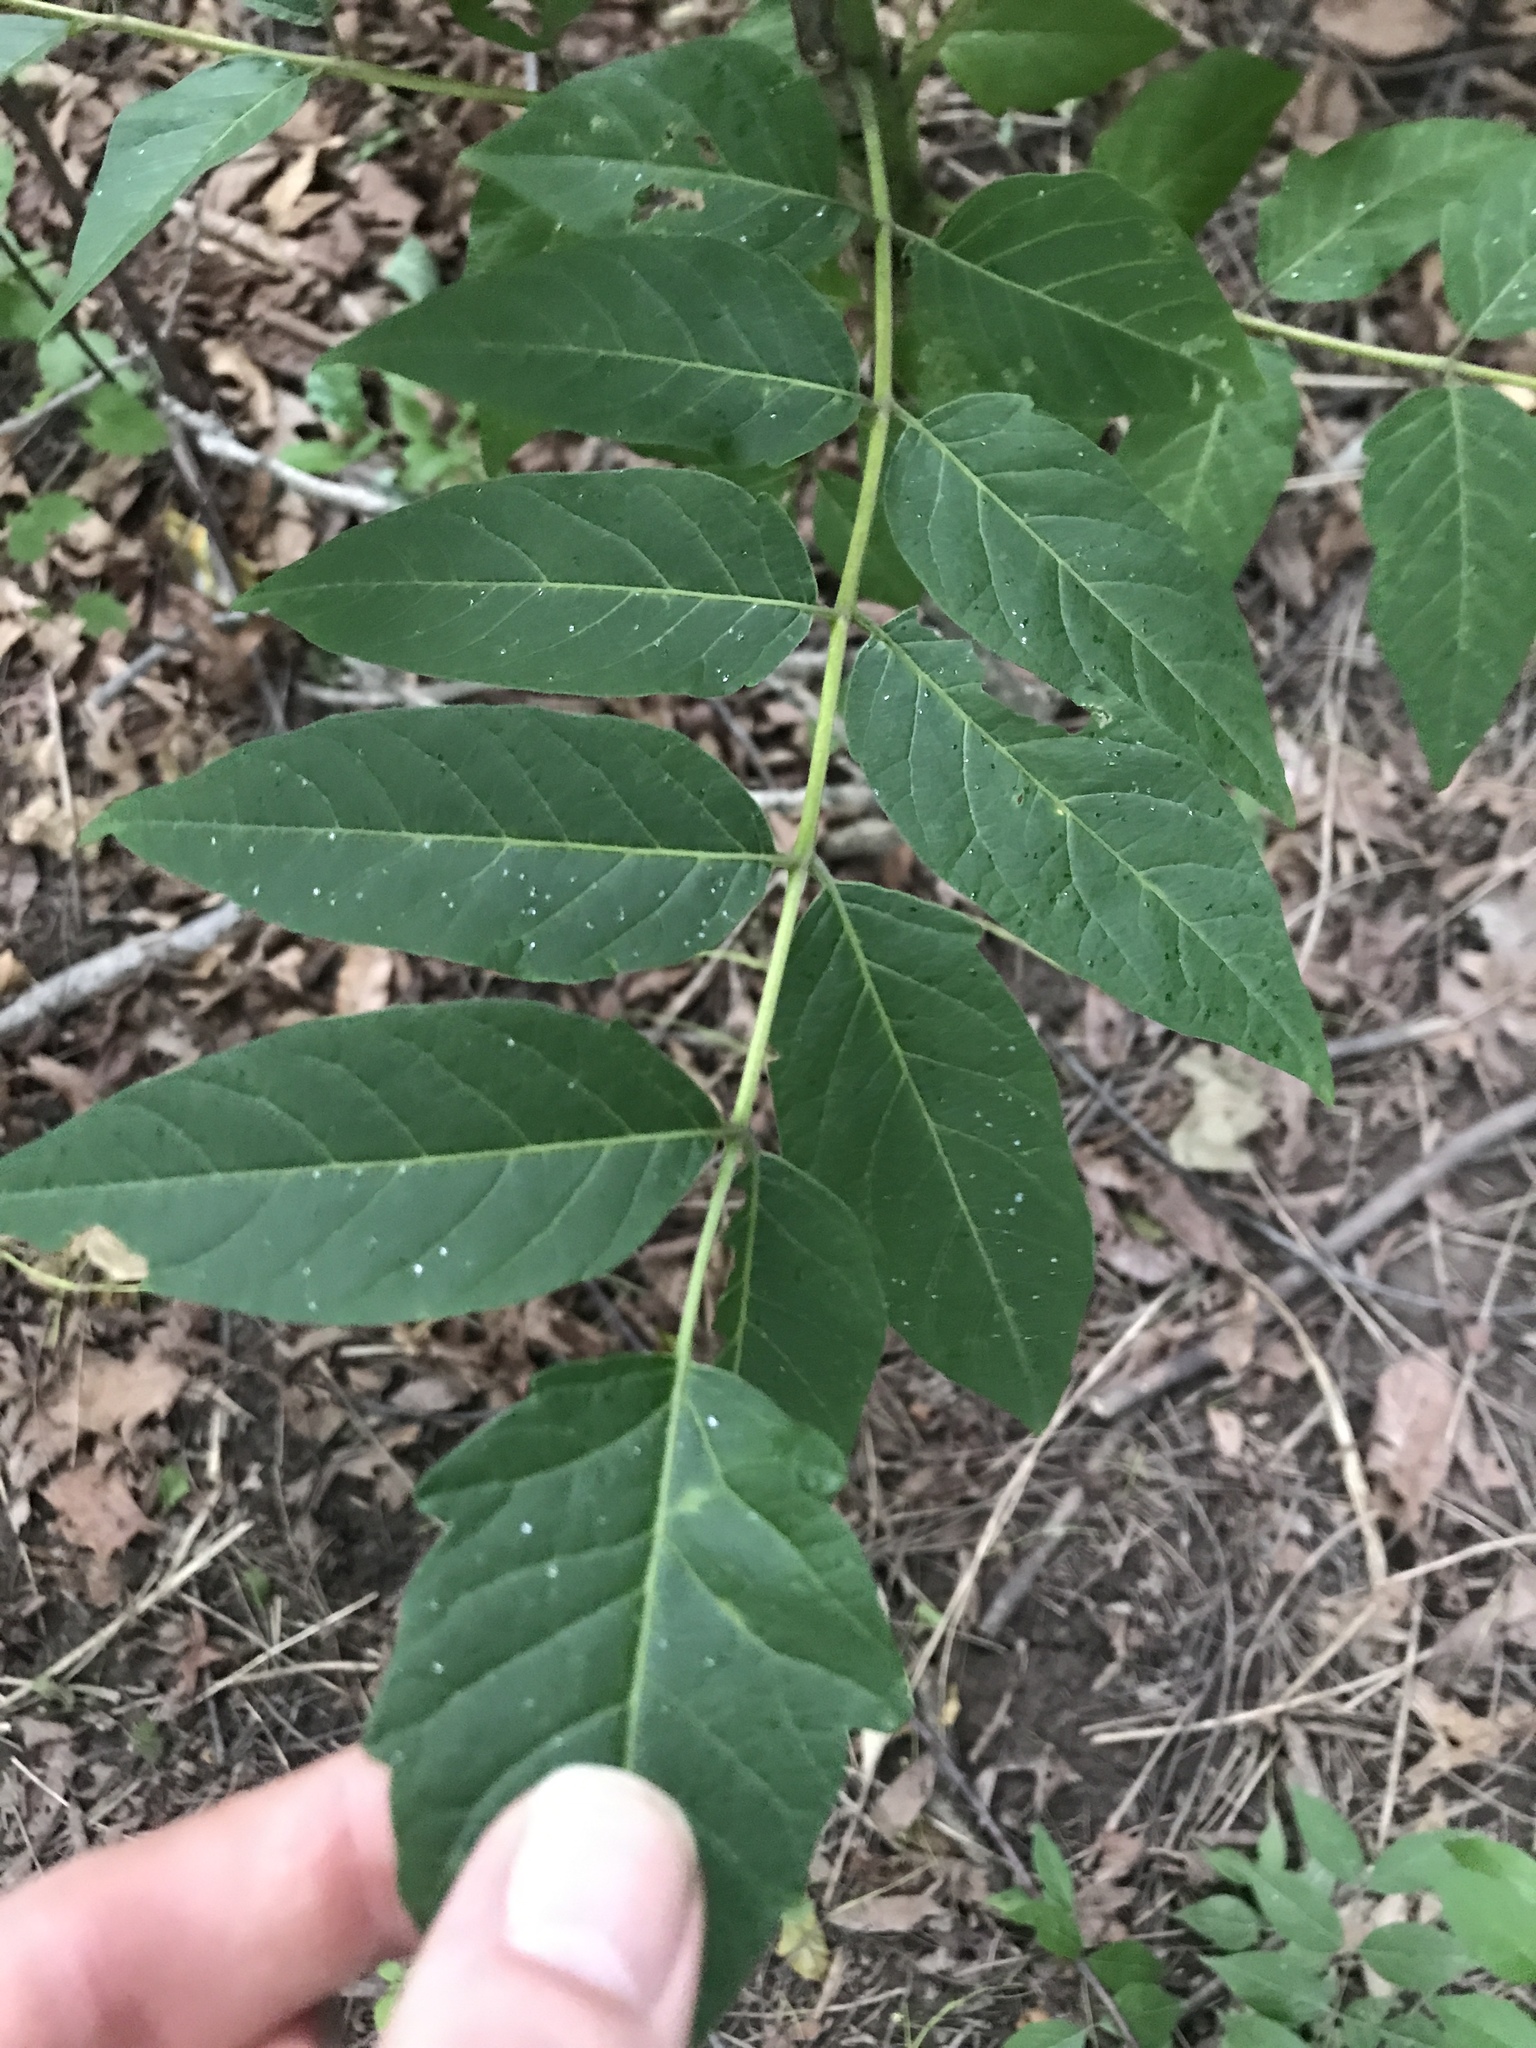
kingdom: Plantae
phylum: Tracheophyta
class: Magnoliopsida
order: Sapindales
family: Simaroubaceae
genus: Ailanthus
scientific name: Ailanthus altissima
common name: Tree-of-heaven
